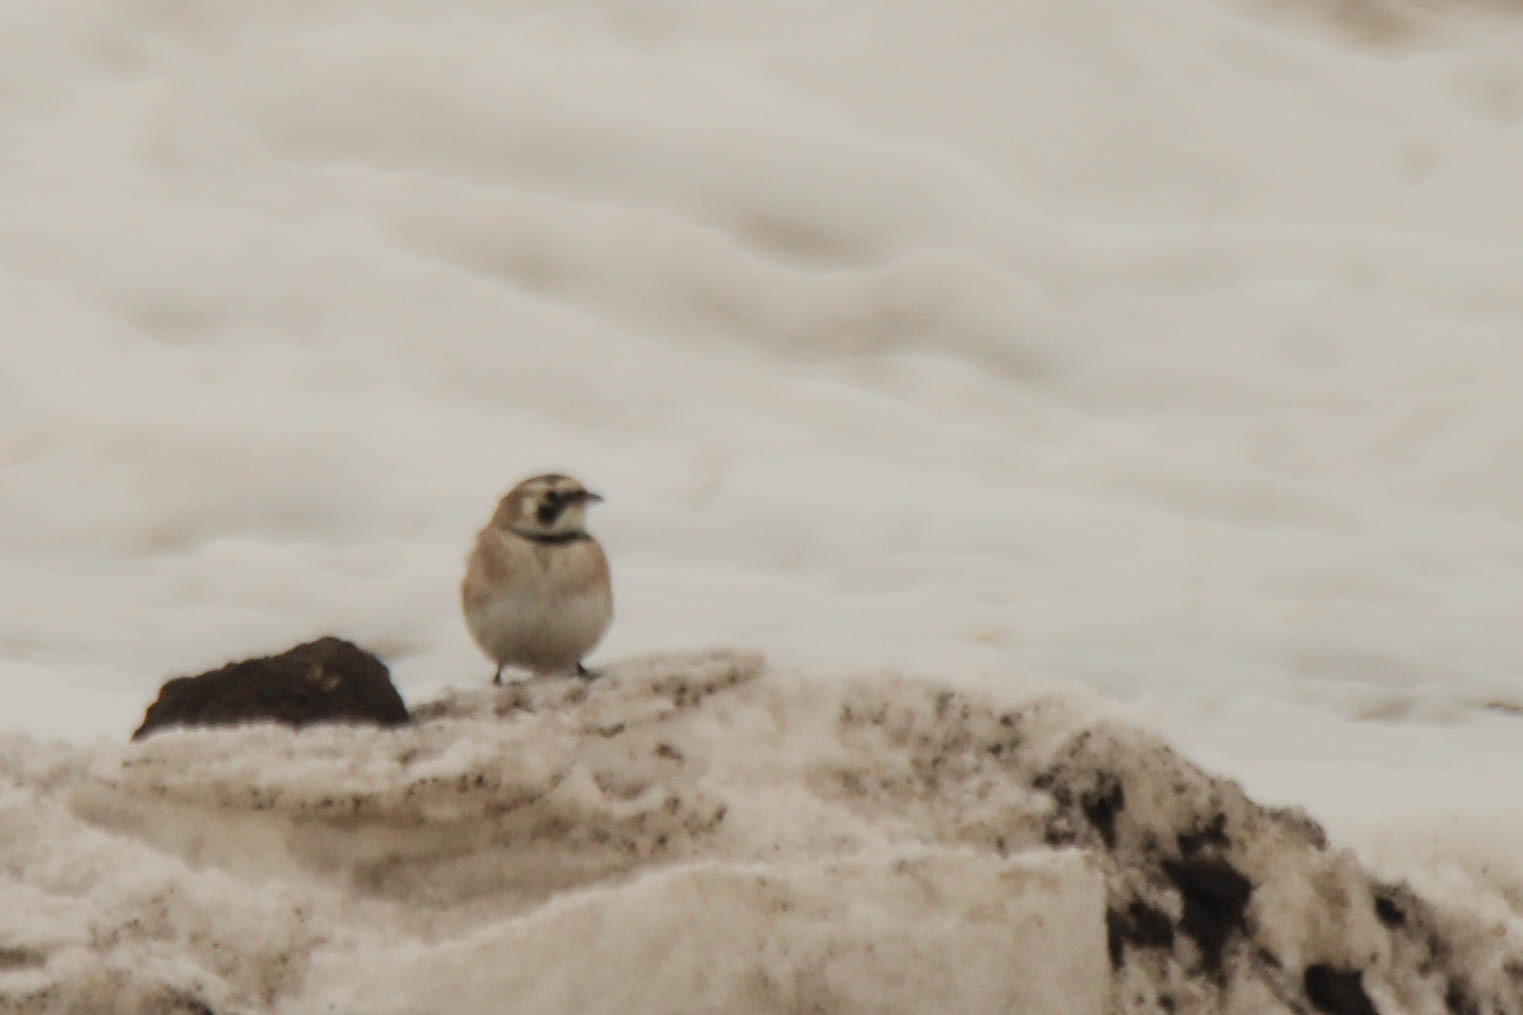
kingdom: Animalia
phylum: Chordata
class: Aves
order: Passeriformes
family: Alaudidae
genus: Eremophila
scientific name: Eremophila alpestris
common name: Horned lark
